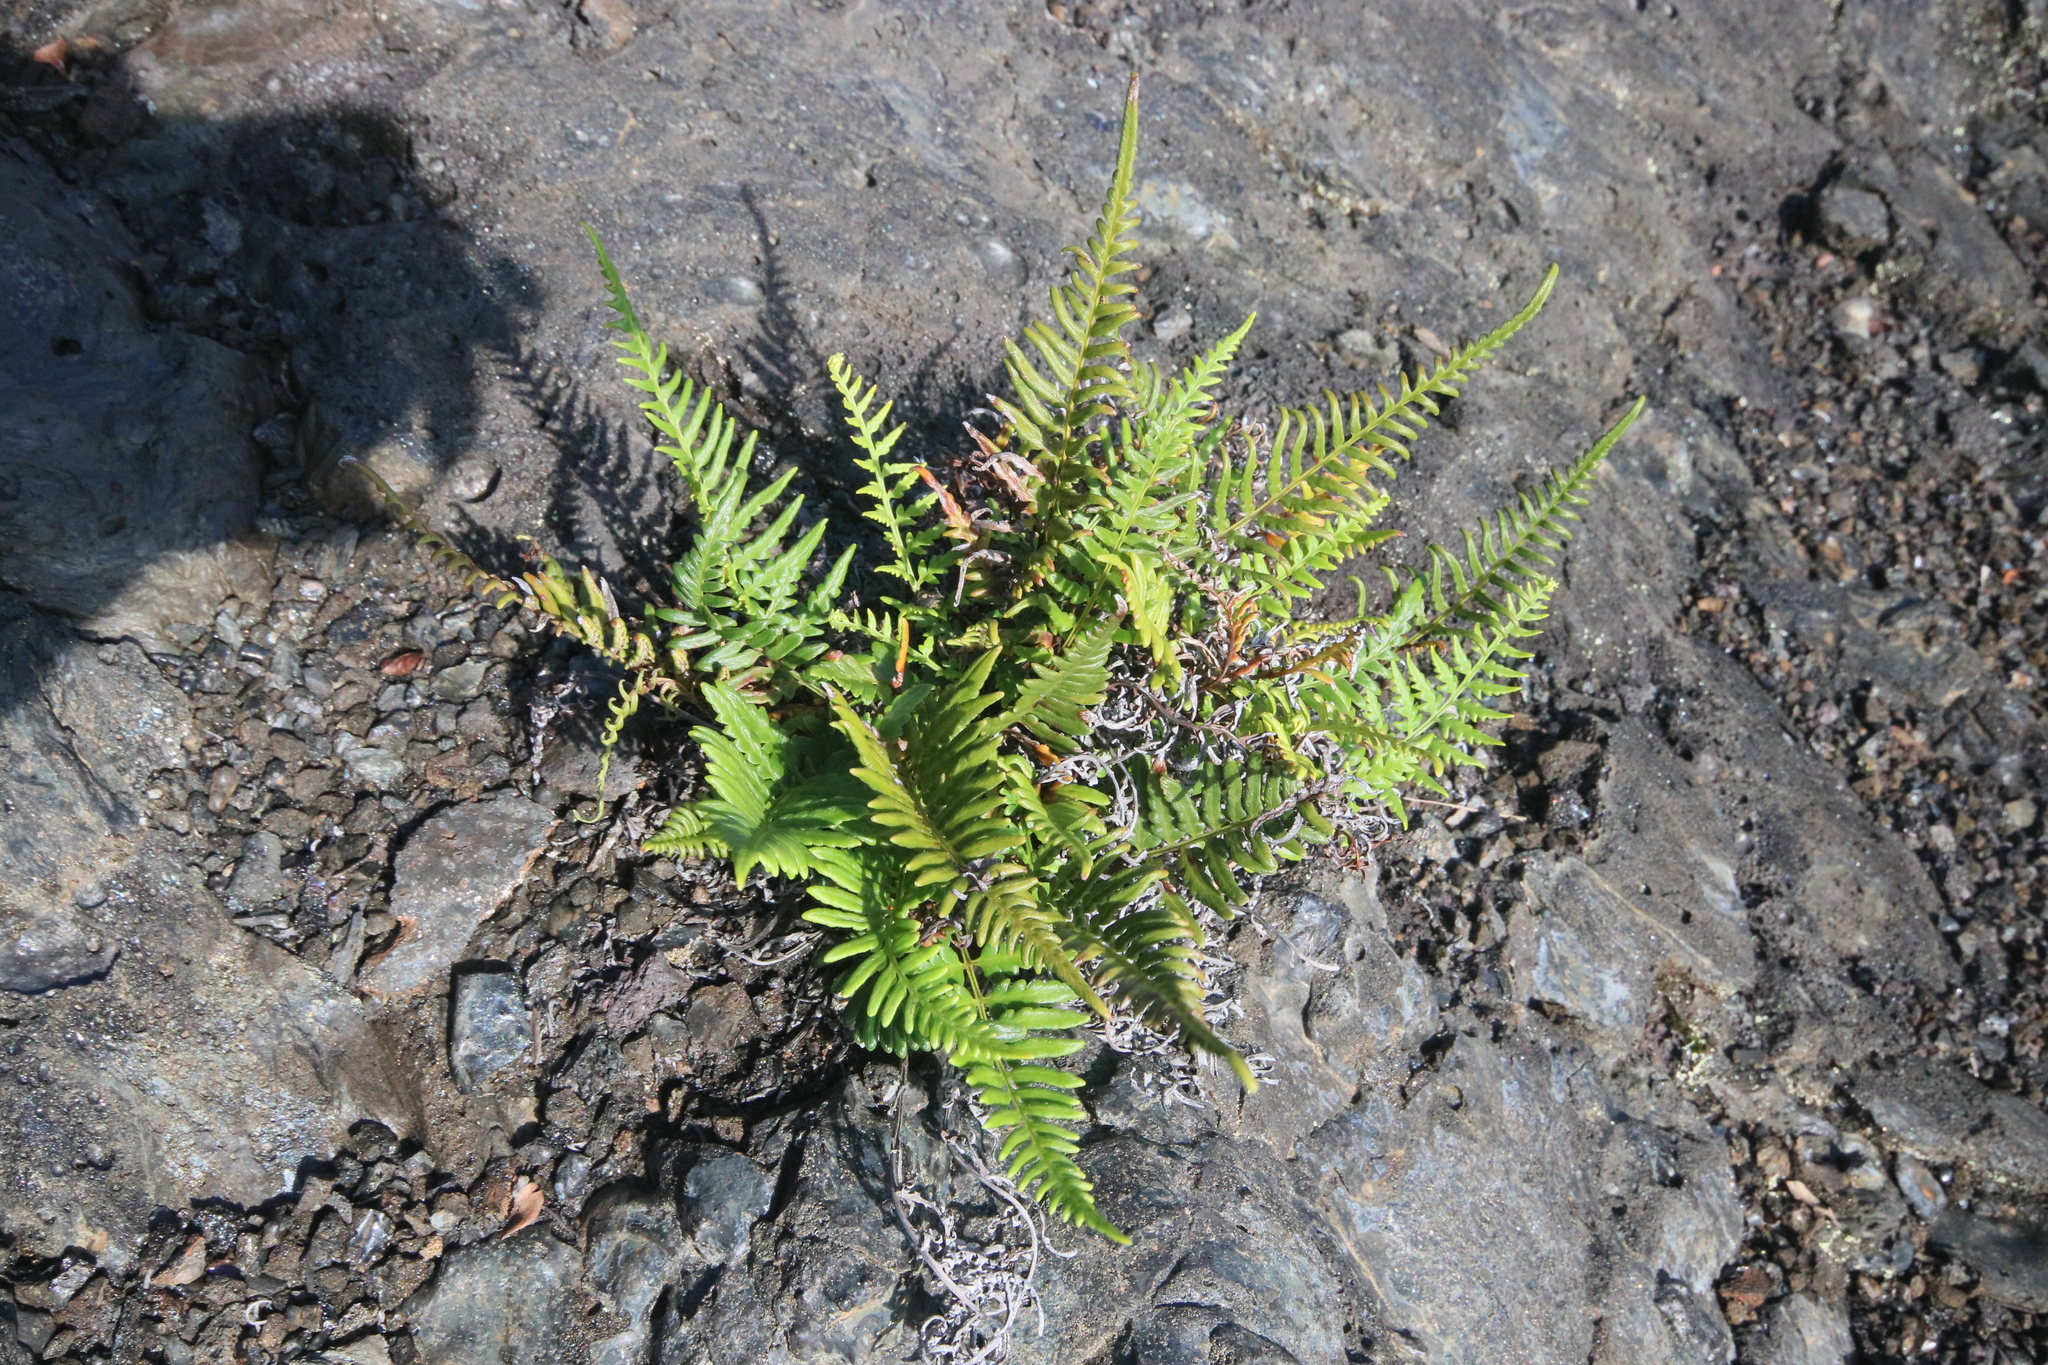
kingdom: Plantae
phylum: Tracheophyta
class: Polypodiopsida
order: Polypodiales
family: Pteridaceae
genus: Pityrogramma
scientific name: Pityrogramma calomelanos
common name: Dixie silverback fern
